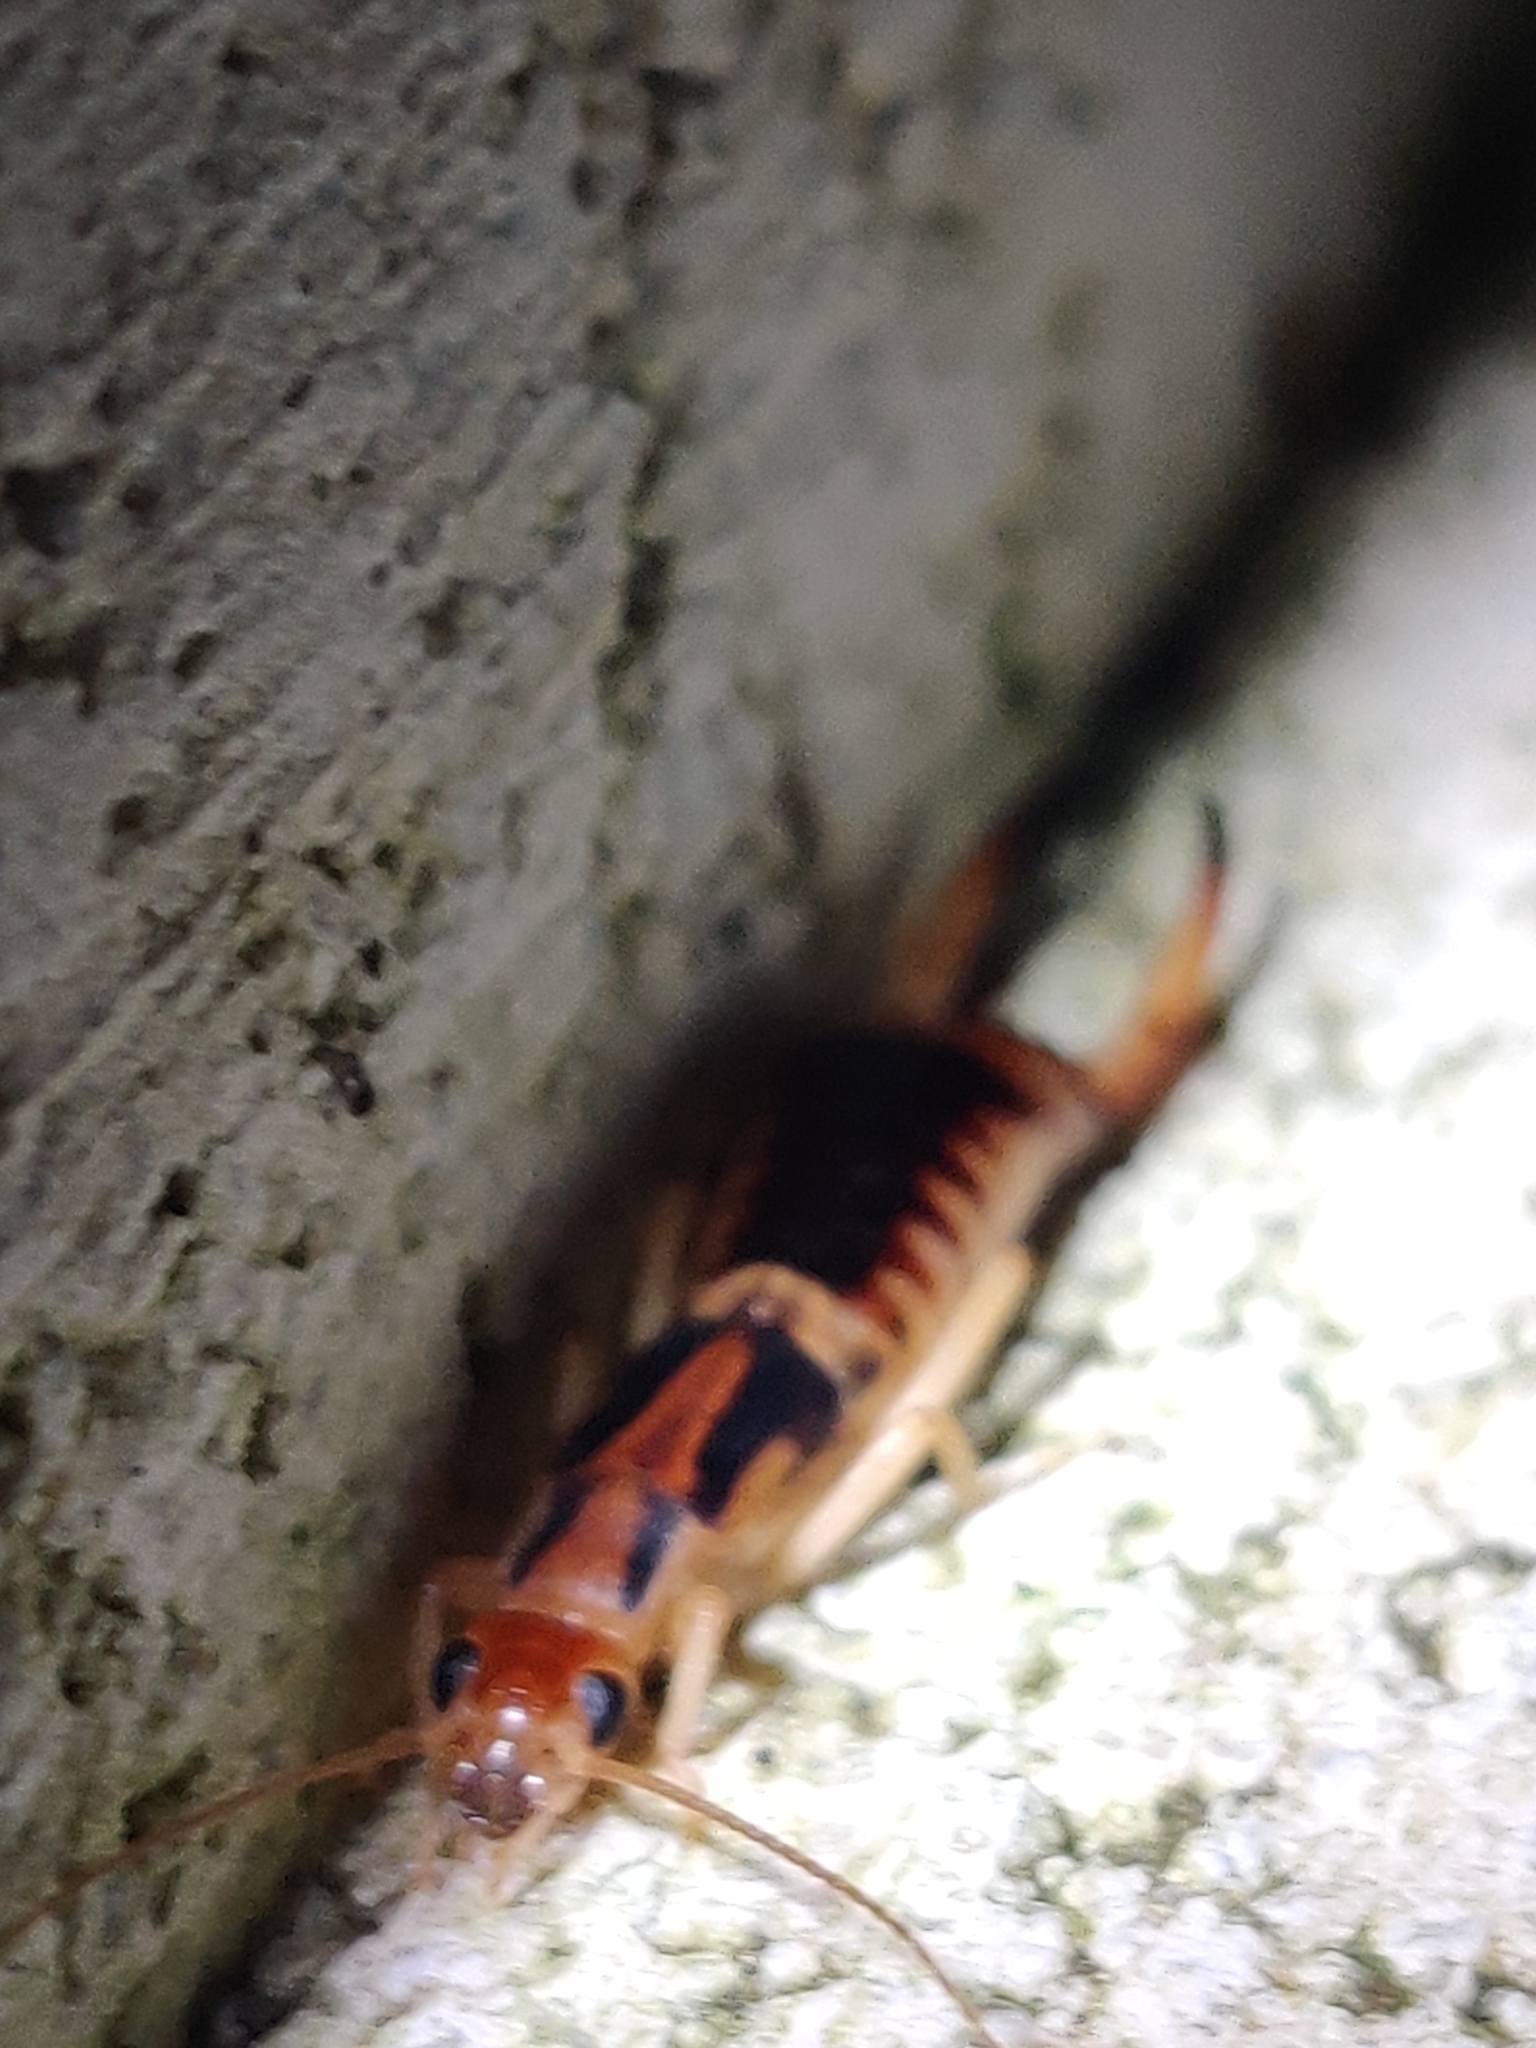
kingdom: Animalia
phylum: Arthropoda
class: Insecta
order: Dermaptera
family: Labiduridae
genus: Labidura
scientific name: Labidura riparia
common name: Striped earwig
